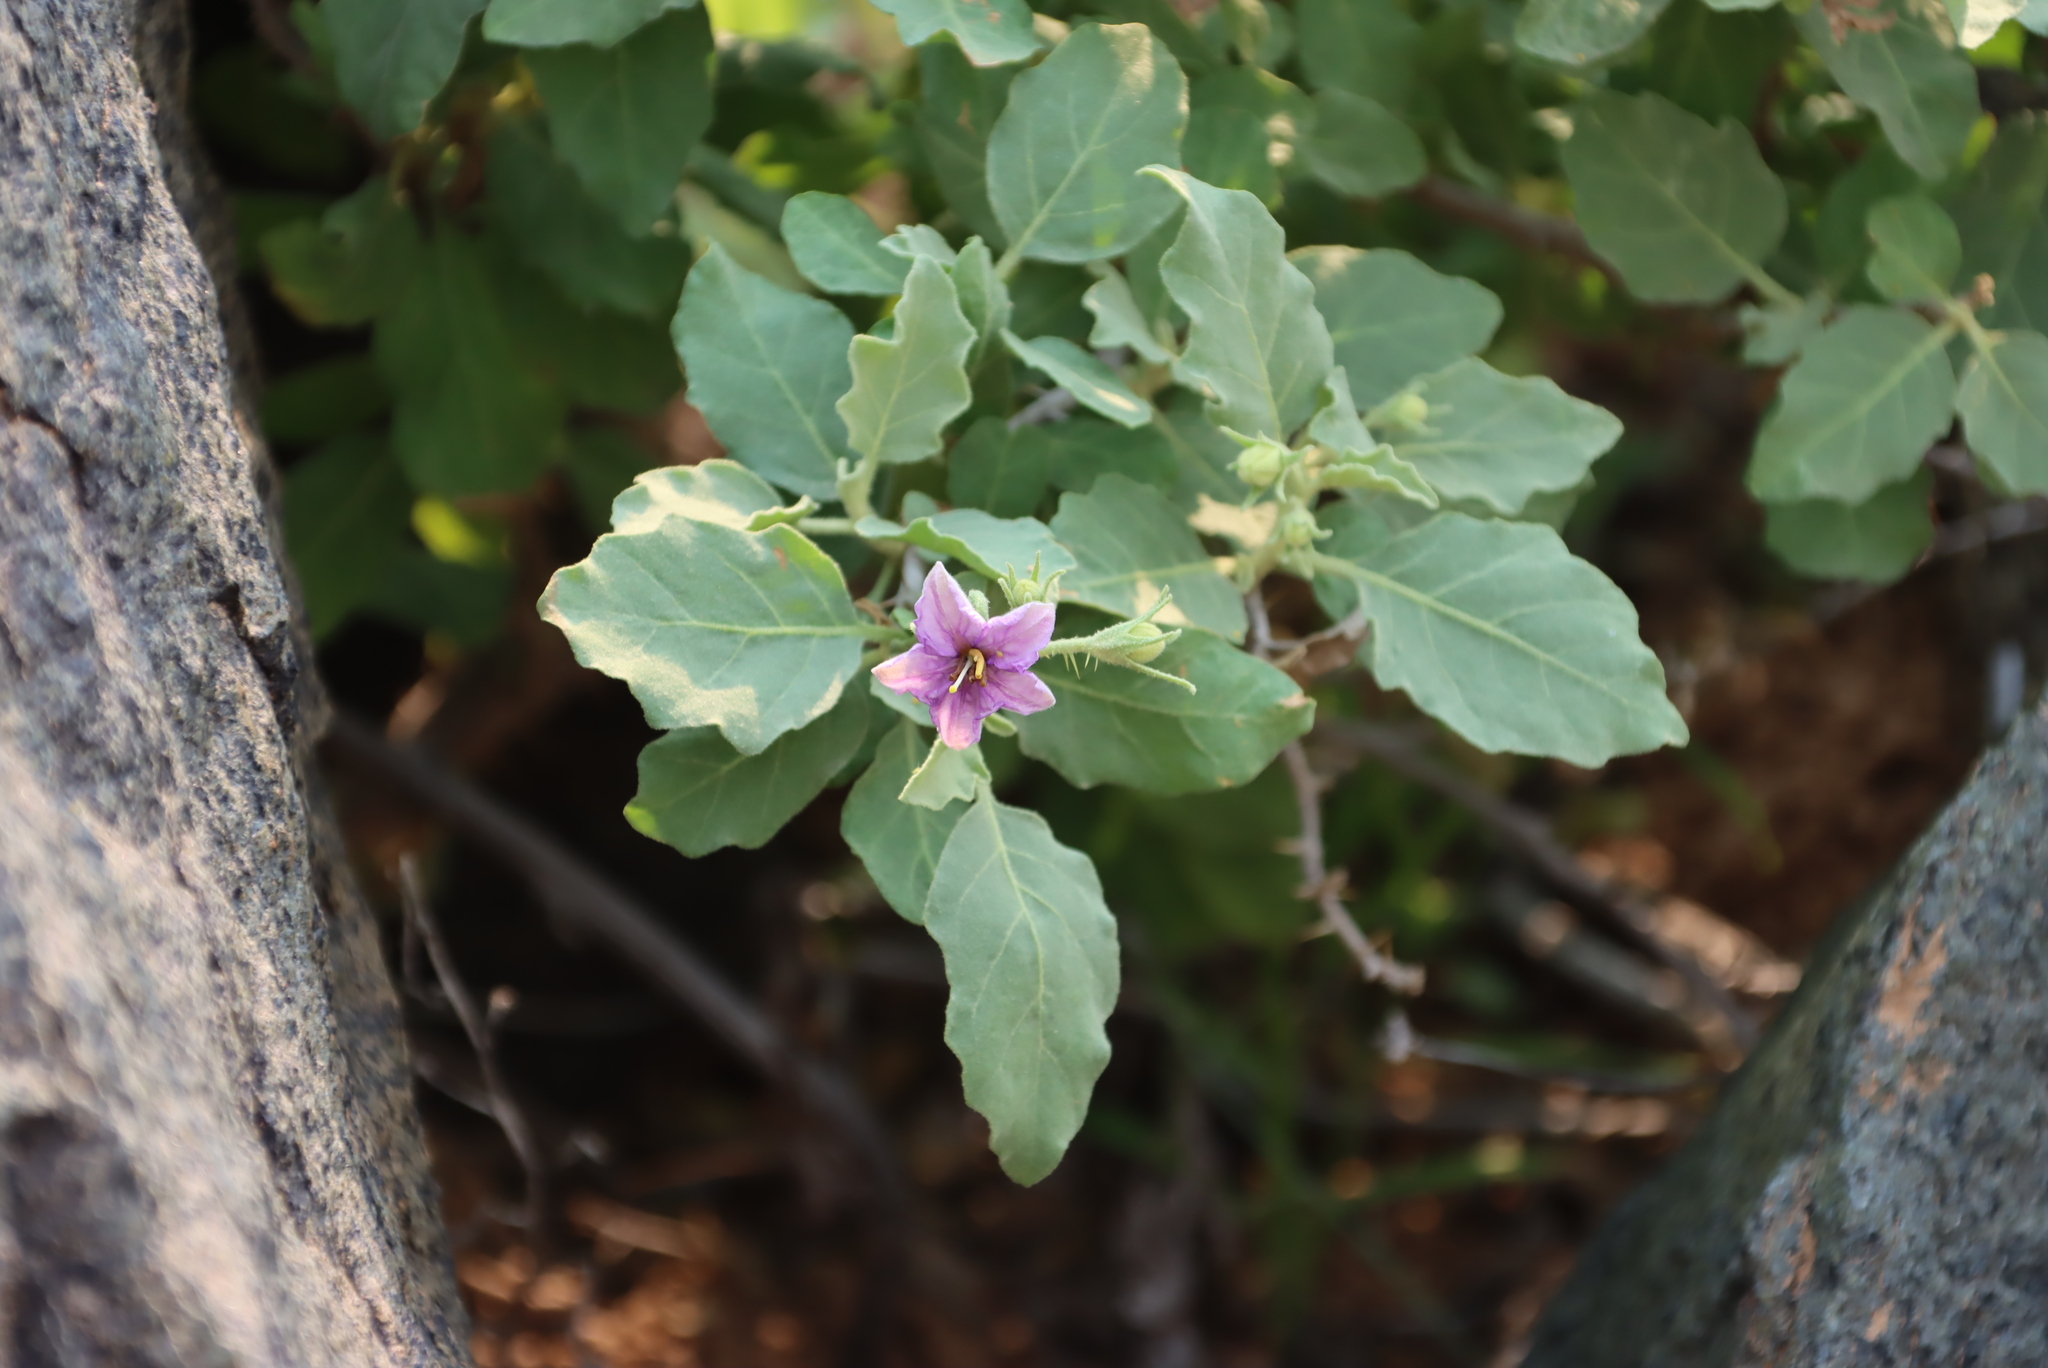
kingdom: Plantae
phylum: Tracheophyta
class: Magnoliopsida
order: Solanales
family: Solanaceae
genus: Solanum
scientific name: Solanum burchellii
